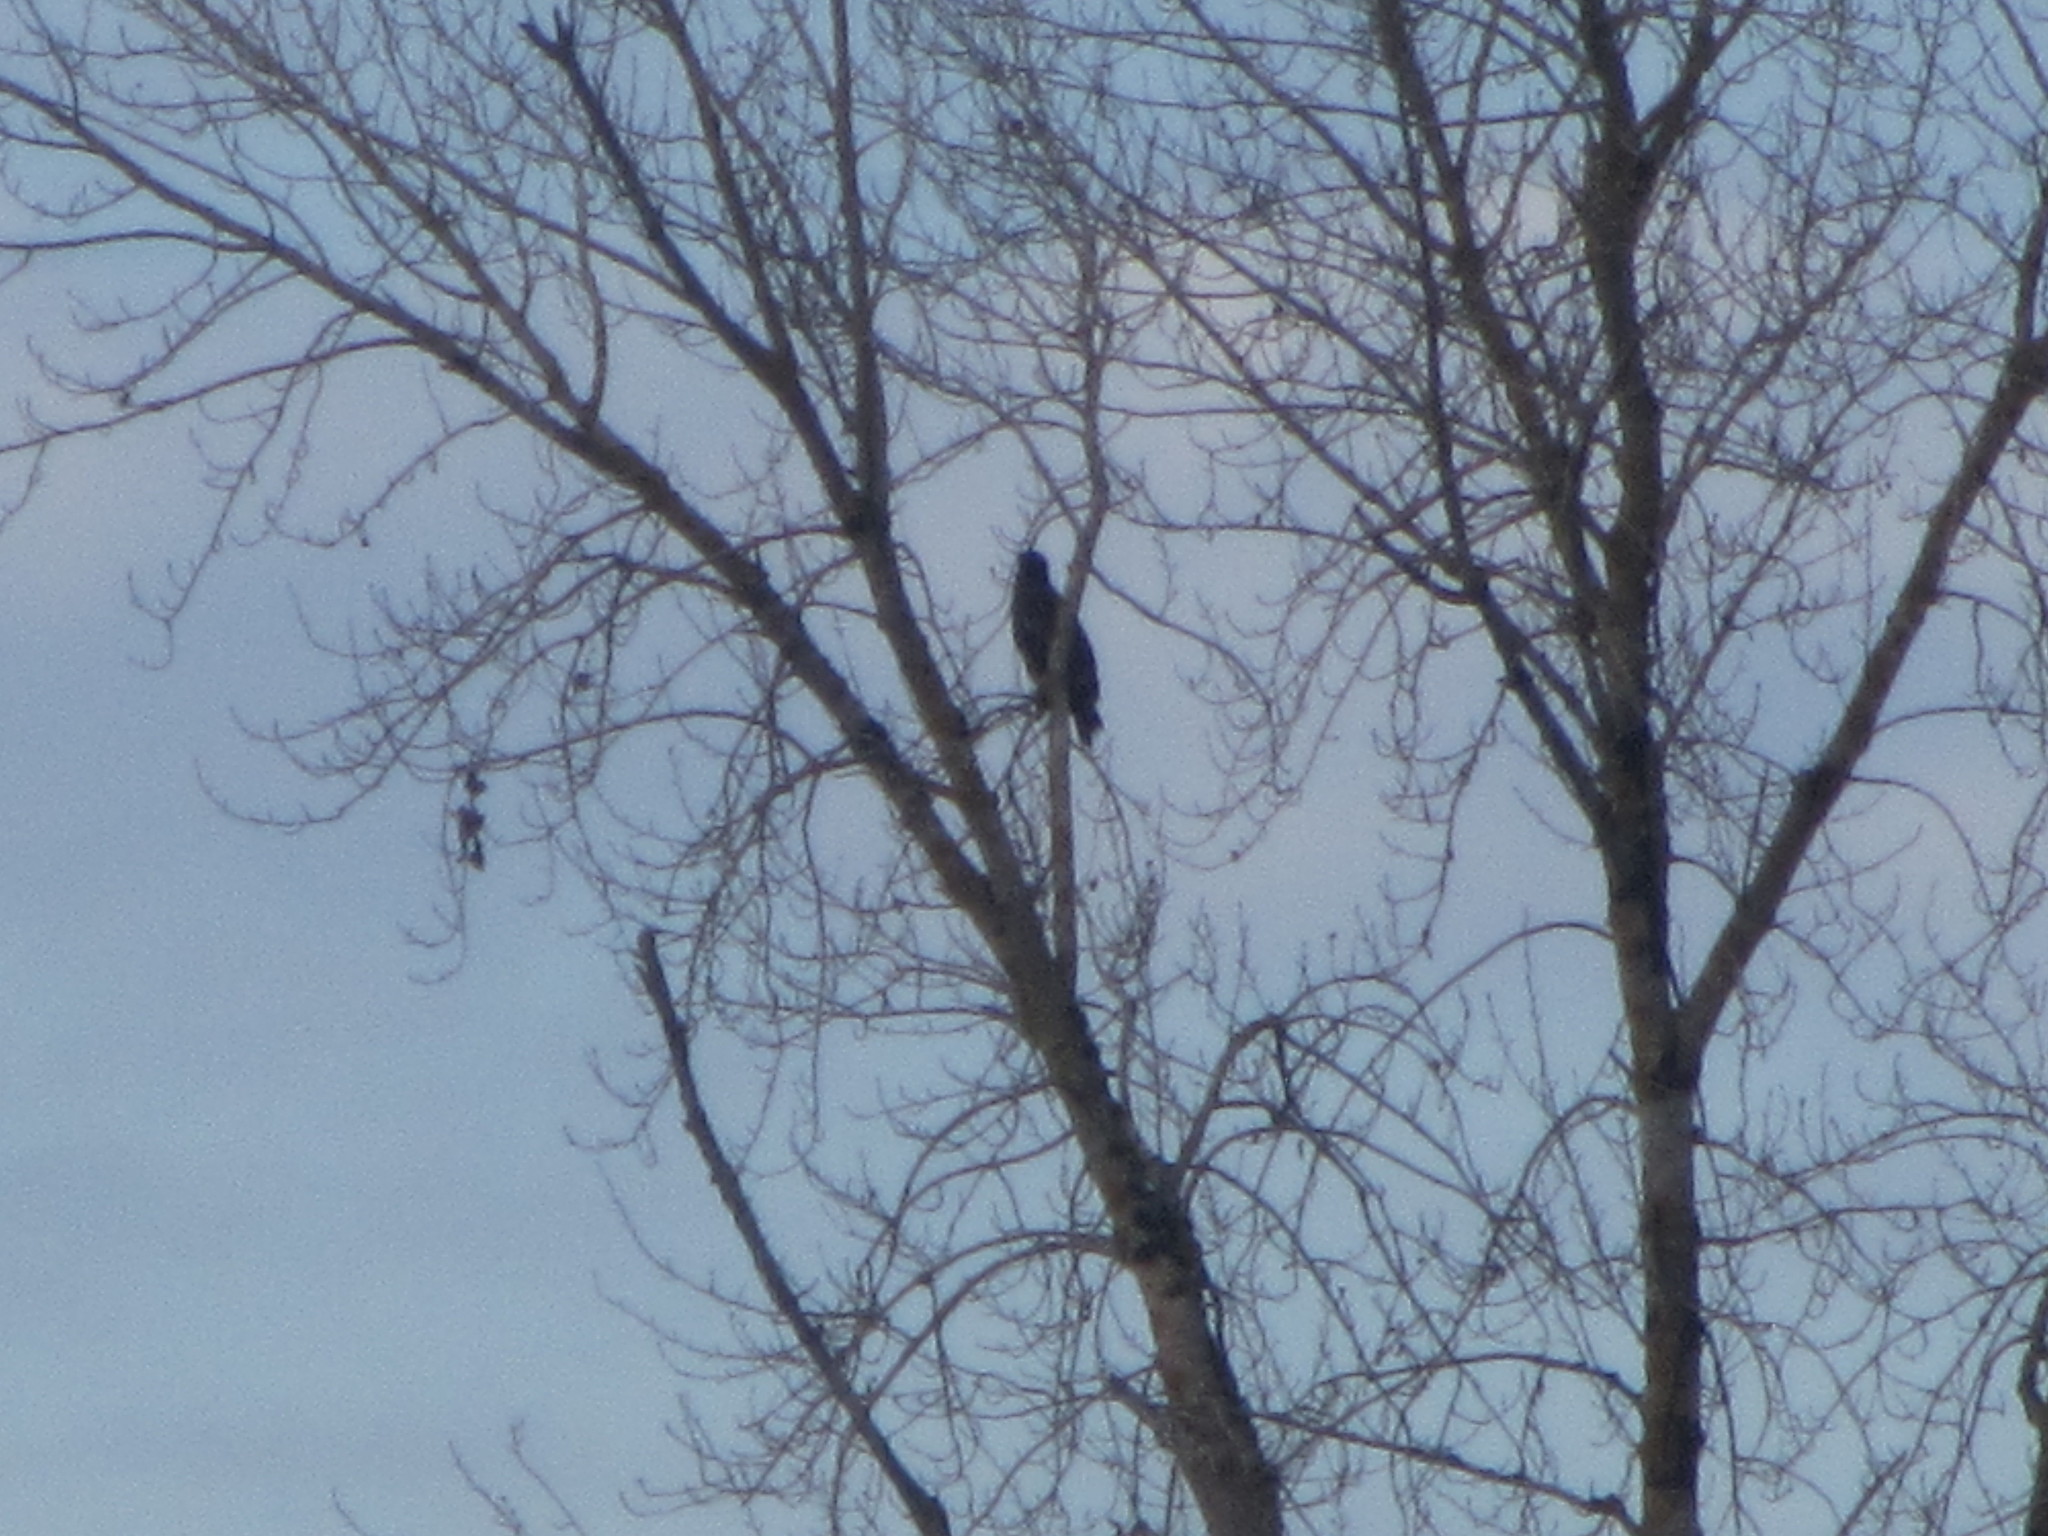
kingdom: Animalia
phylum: Chordata
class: Aves
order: Accipitriformes
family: Accipitridae
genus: Haliaeetus
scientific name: Haliaeetus leucocephalus
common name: Bald eagle
